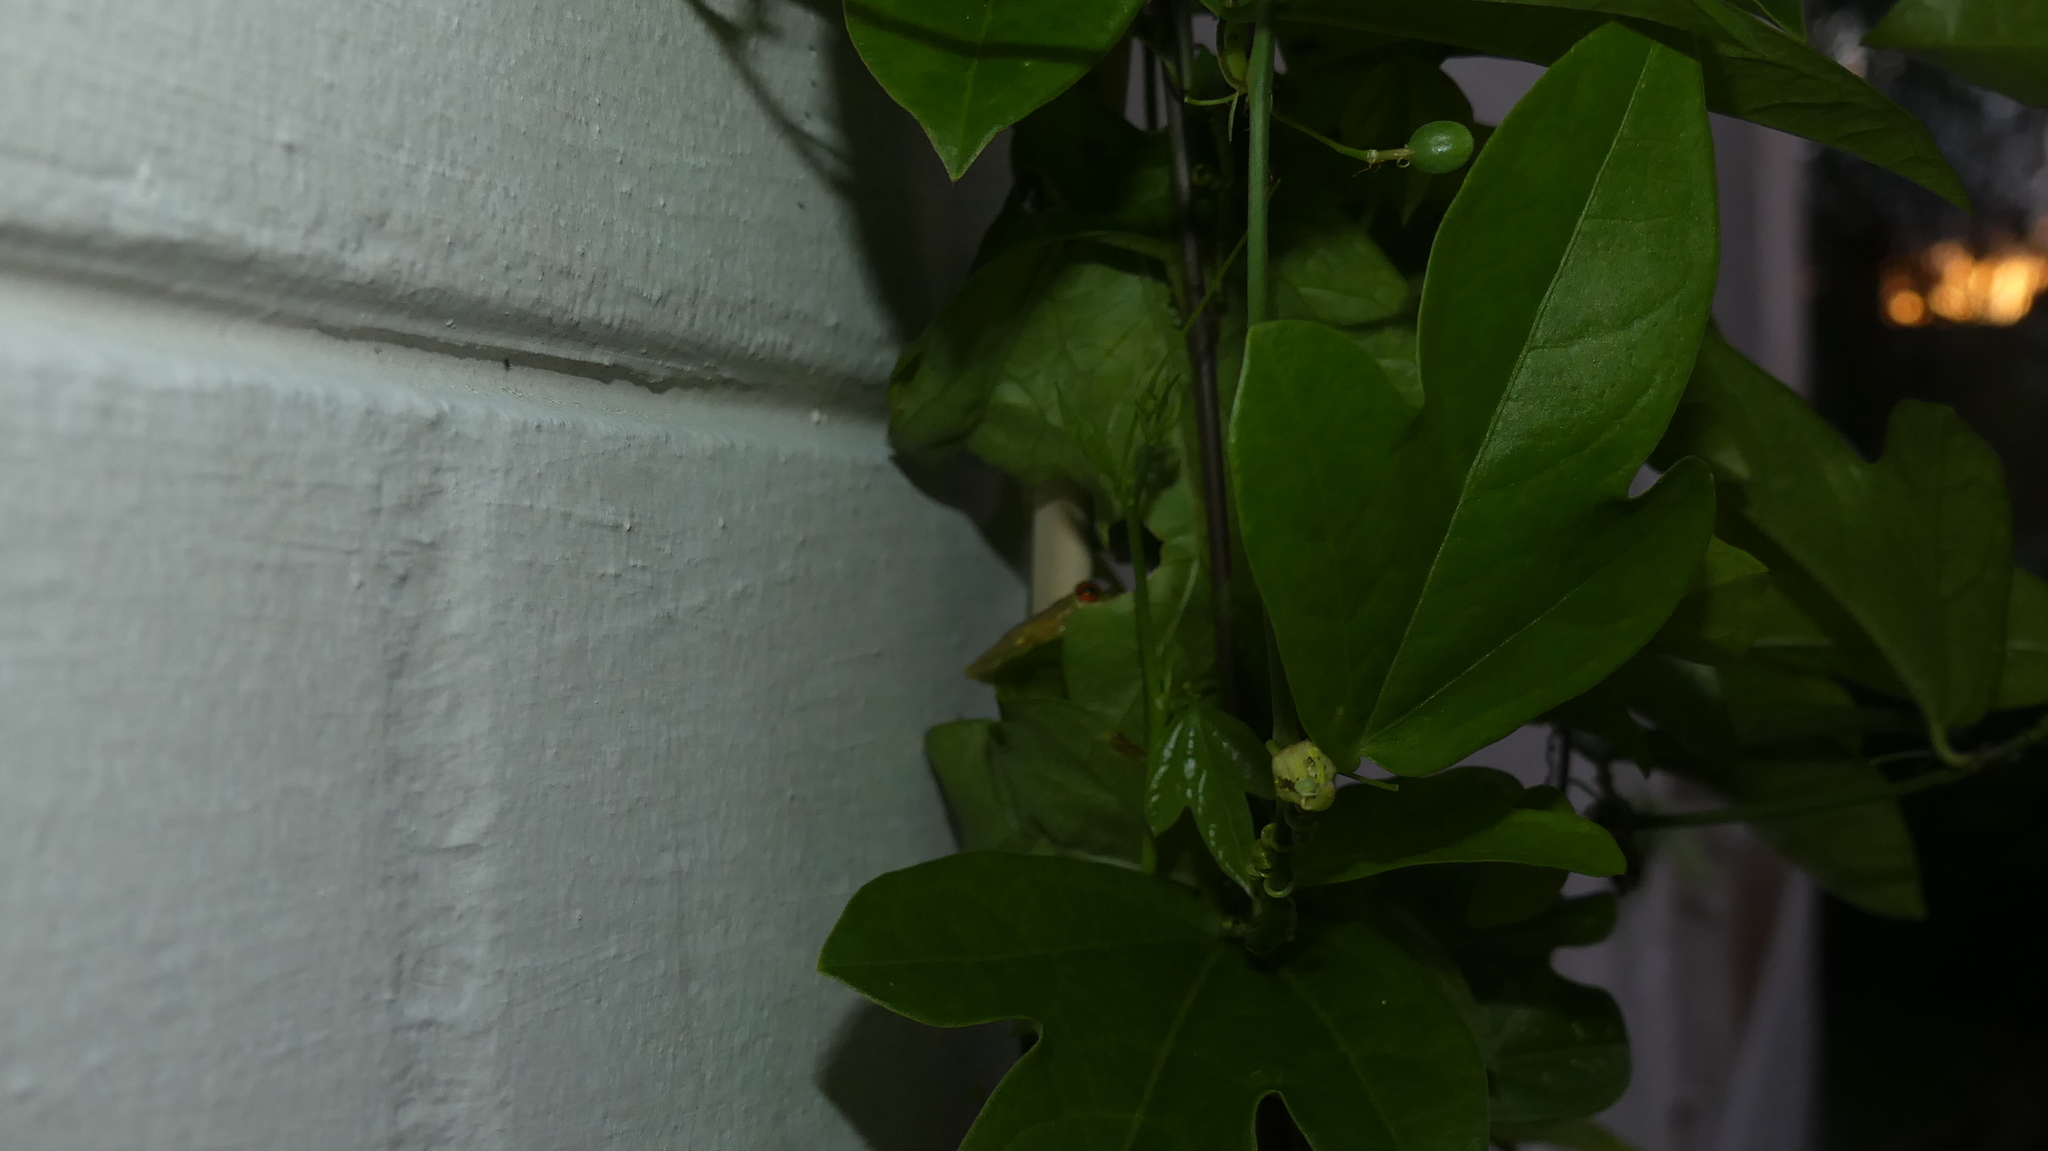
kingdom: Animalia
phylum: Chordata
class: Amphibia
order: Anura
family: Hylidae
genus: Osteopilus
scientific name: Osteopilus septentrionalis
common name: Cuban treefrog
